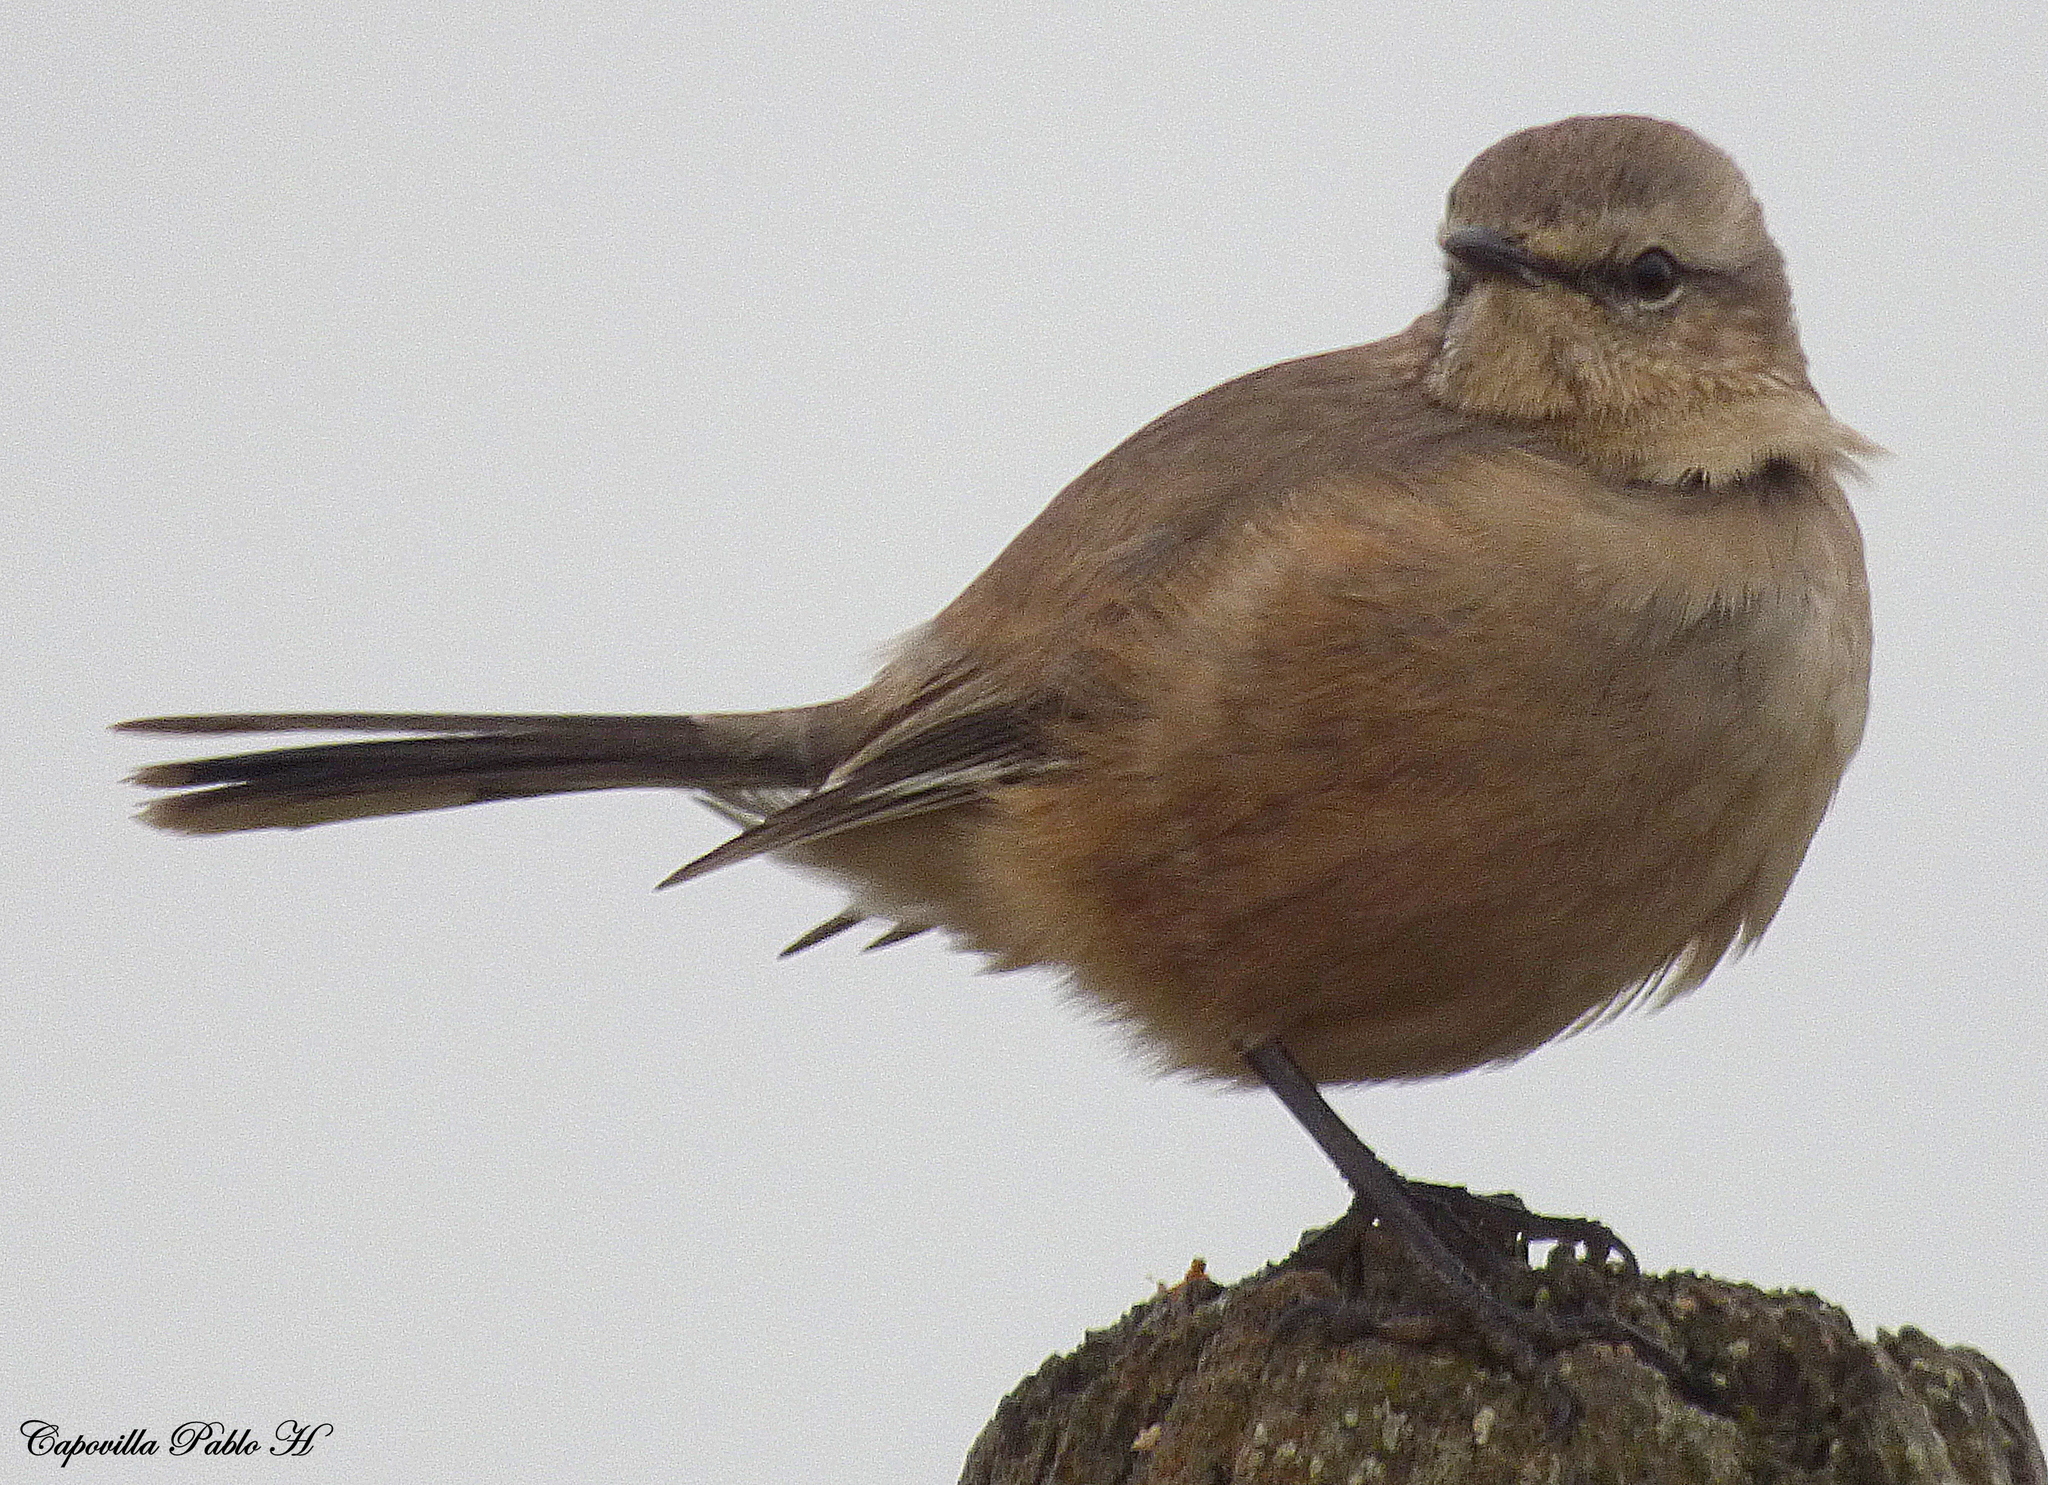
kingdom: Animalia
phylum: Chordata
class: Aves
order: Passeriformes
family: Mimidae
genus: Mimus
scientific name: Mimus patagonicus
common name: Patagonian mockingbird
